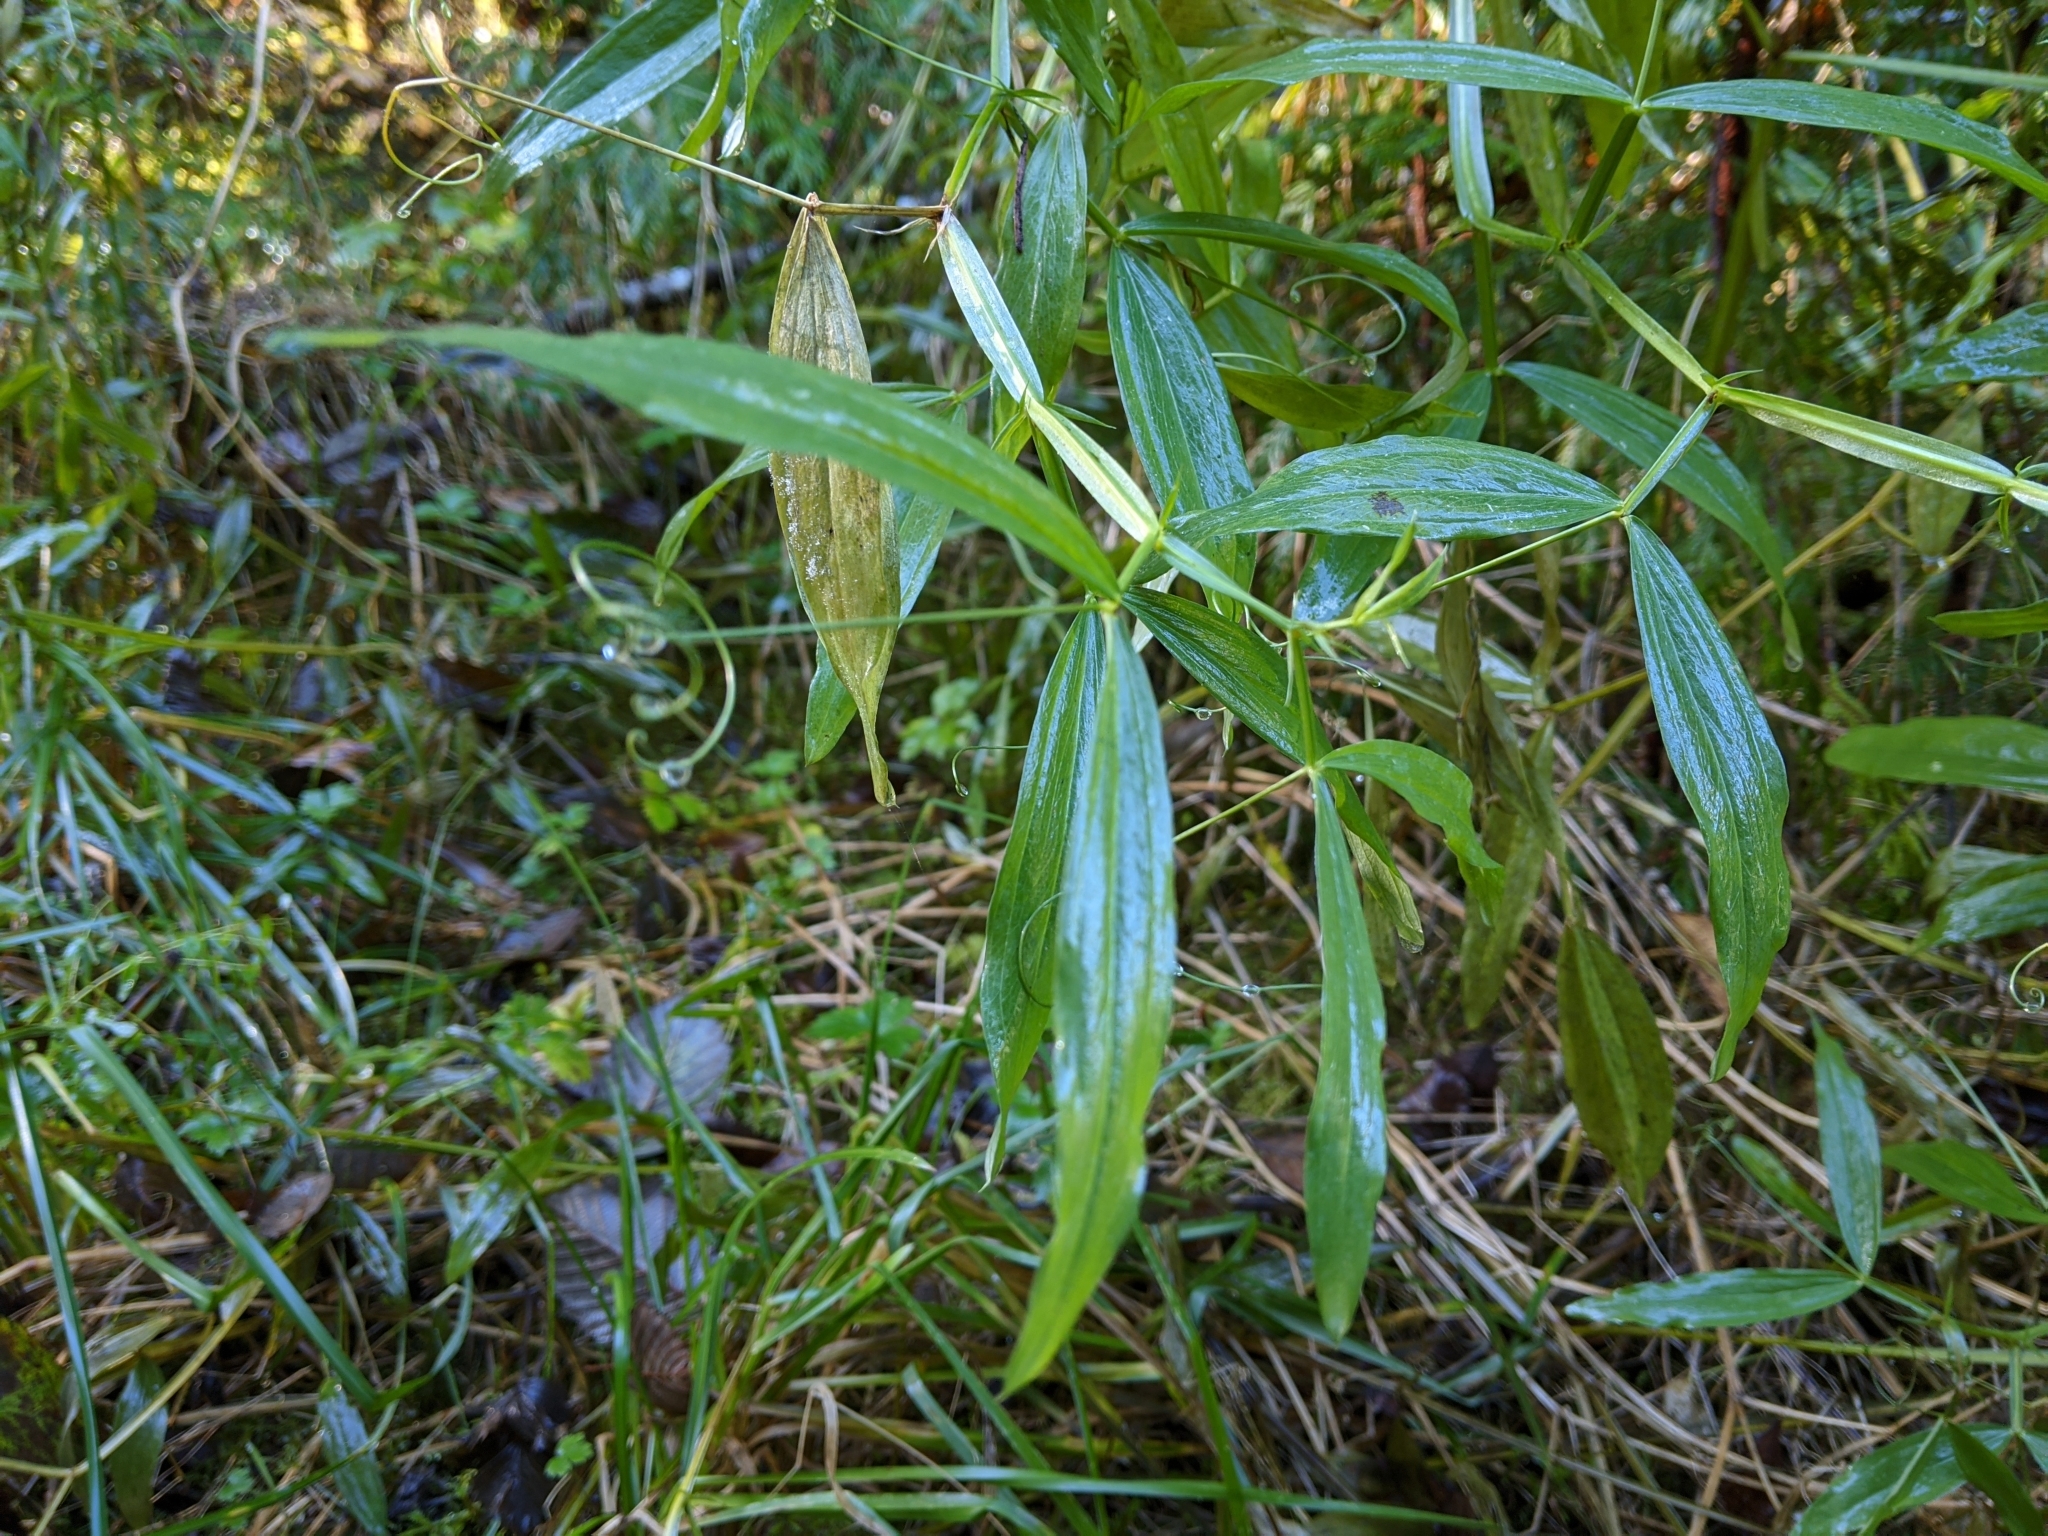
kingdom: Plantae
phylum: Tracheophyta
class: Magnoliopsida
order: Fabales
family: Fabaceae
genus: Lathyrus
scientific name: Lathyrus sylvestris
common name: Flat pea
